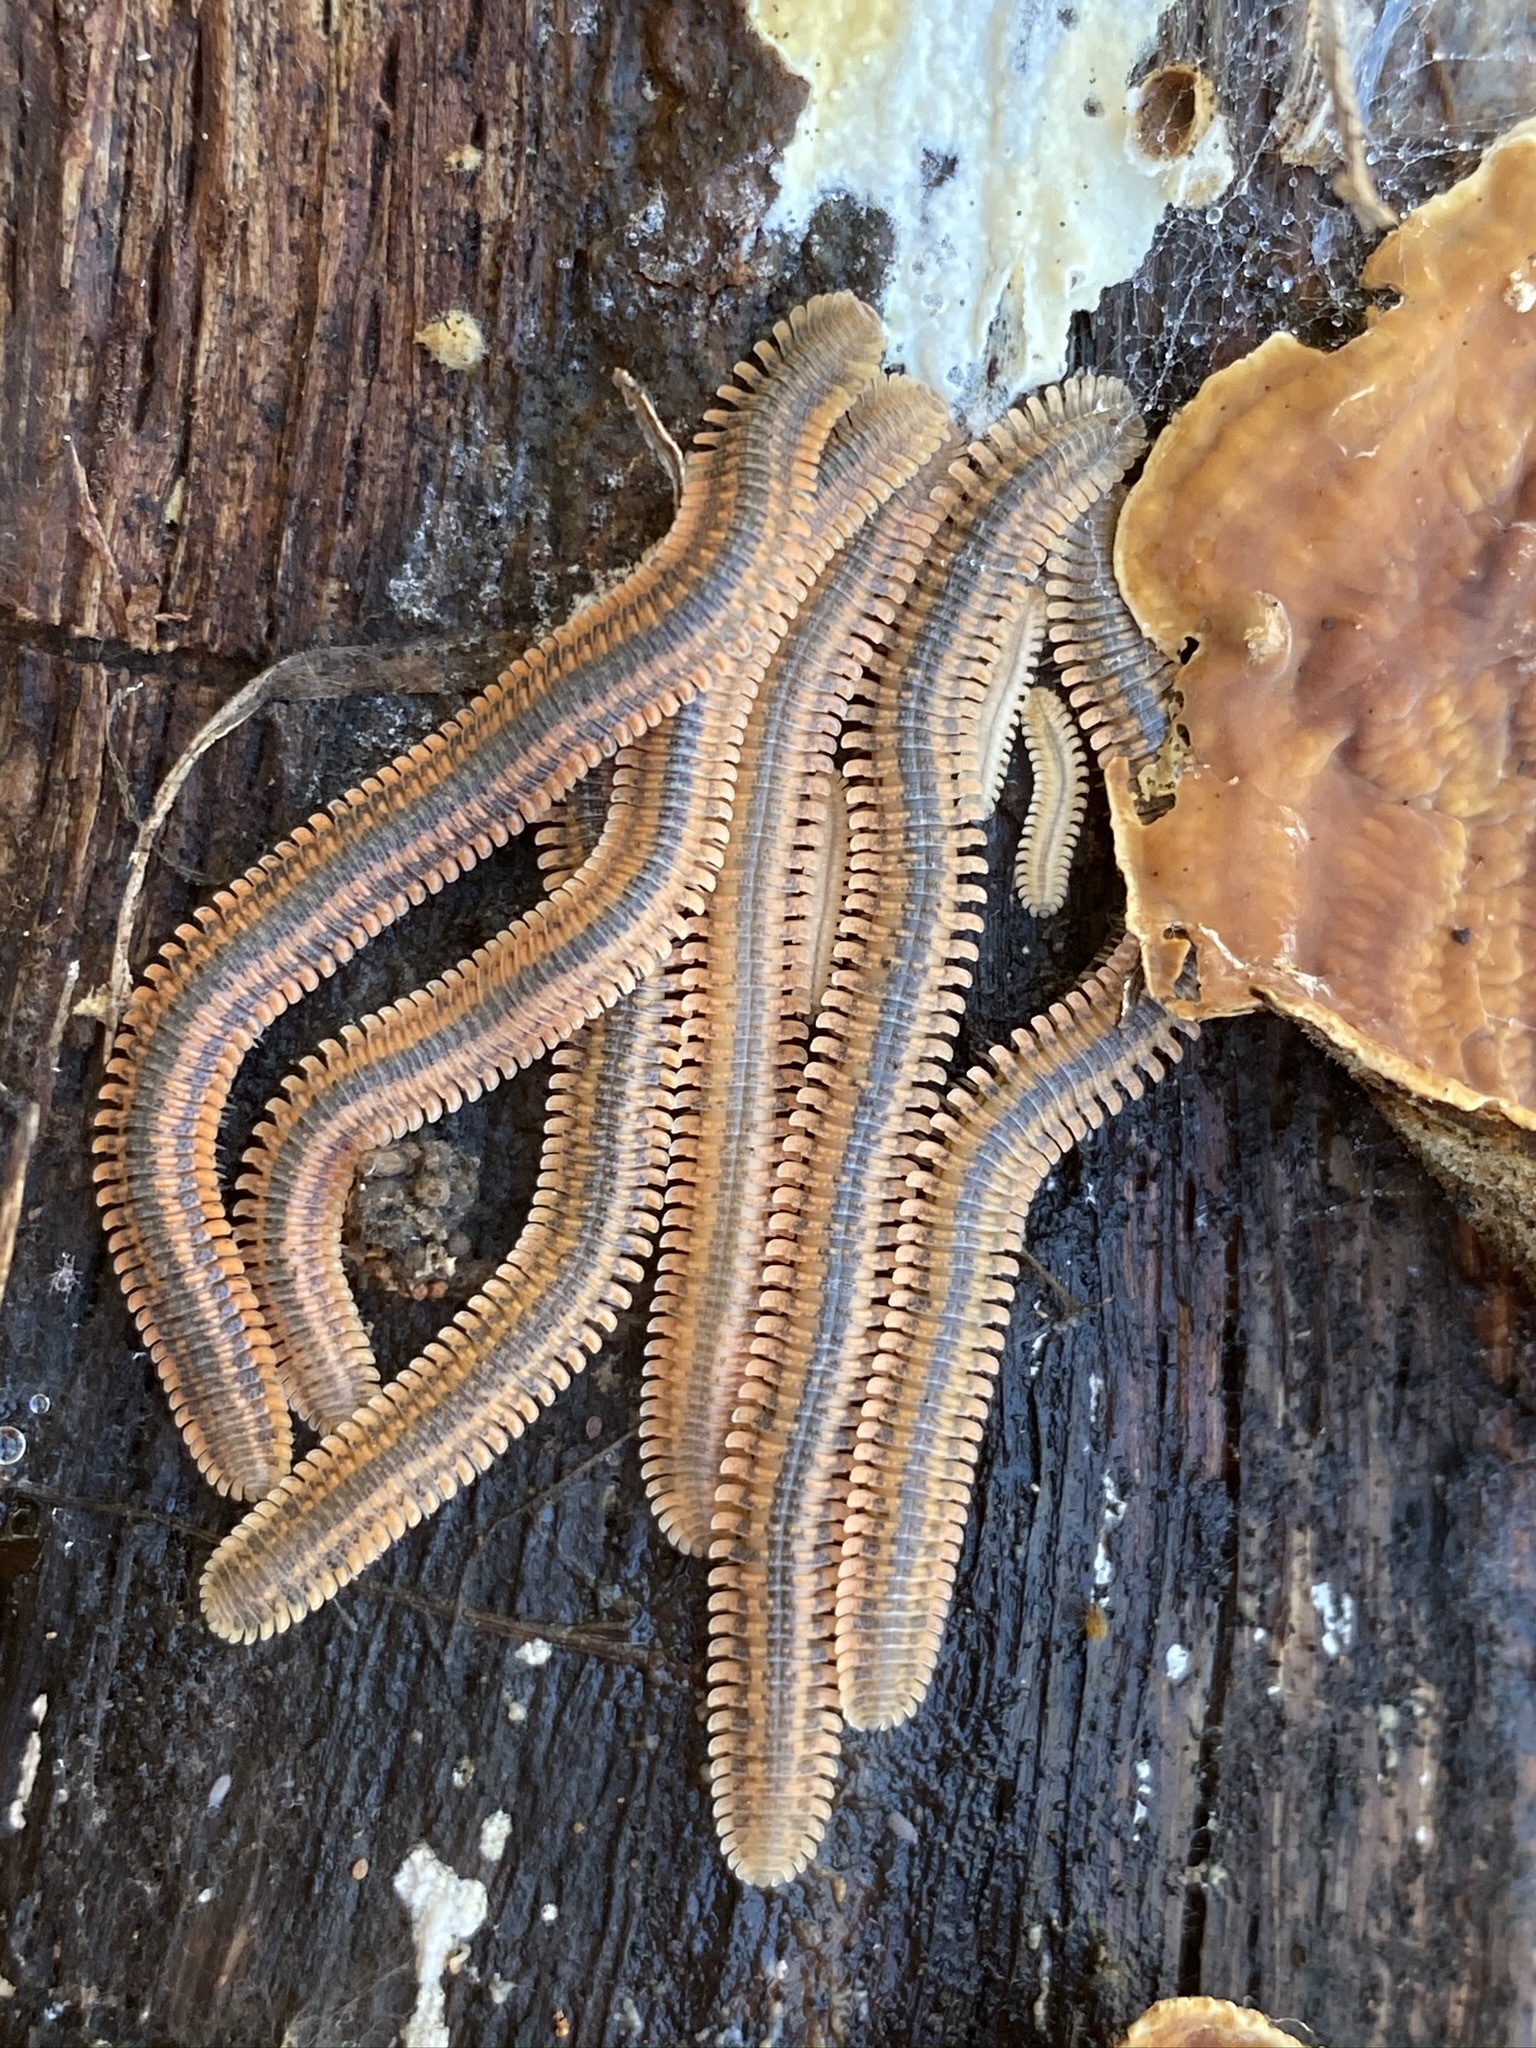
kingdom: Animalia
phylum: Arthropoda
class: Diplopoda
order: Platydesmida
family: Andrognathidae
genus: Brachycybe
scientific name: Brachycybe producta
